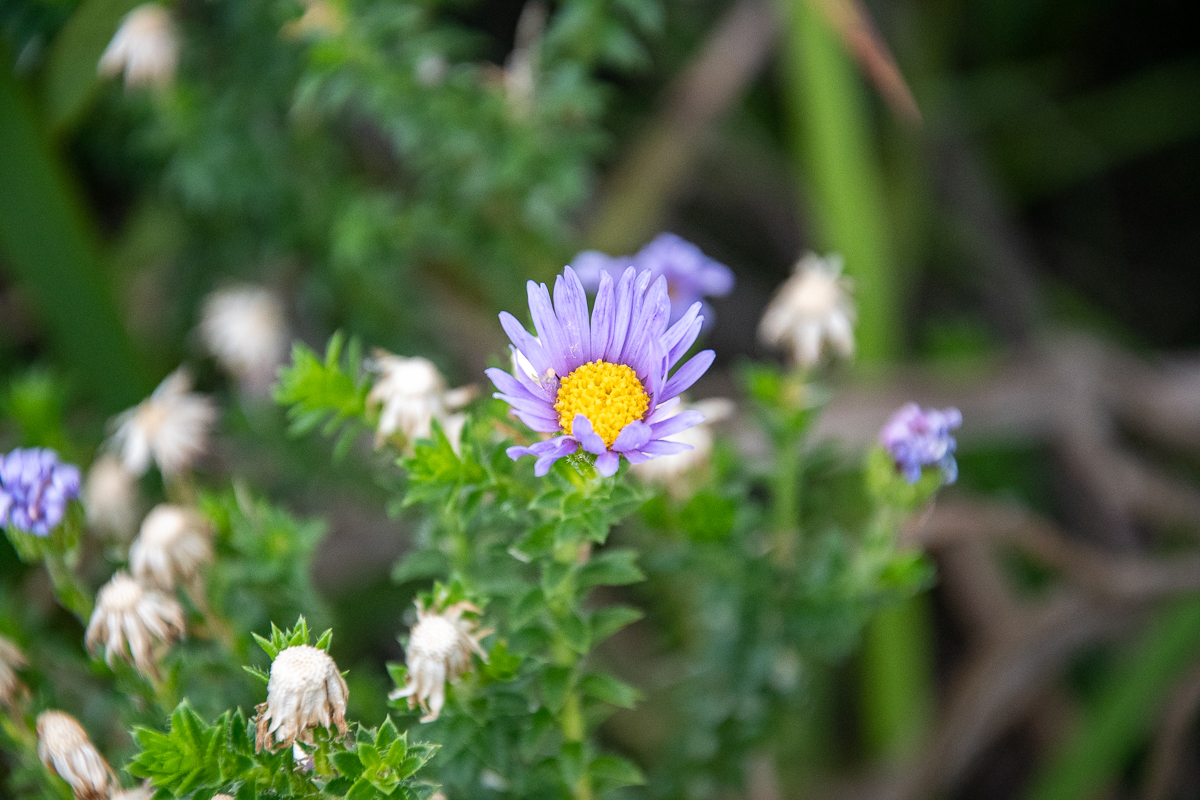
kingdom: Plantae
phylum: Tracheophyta
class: Magnoliopsida
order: Asterales
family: Asteraceae
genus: Felicia
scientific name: Felicia echinata
